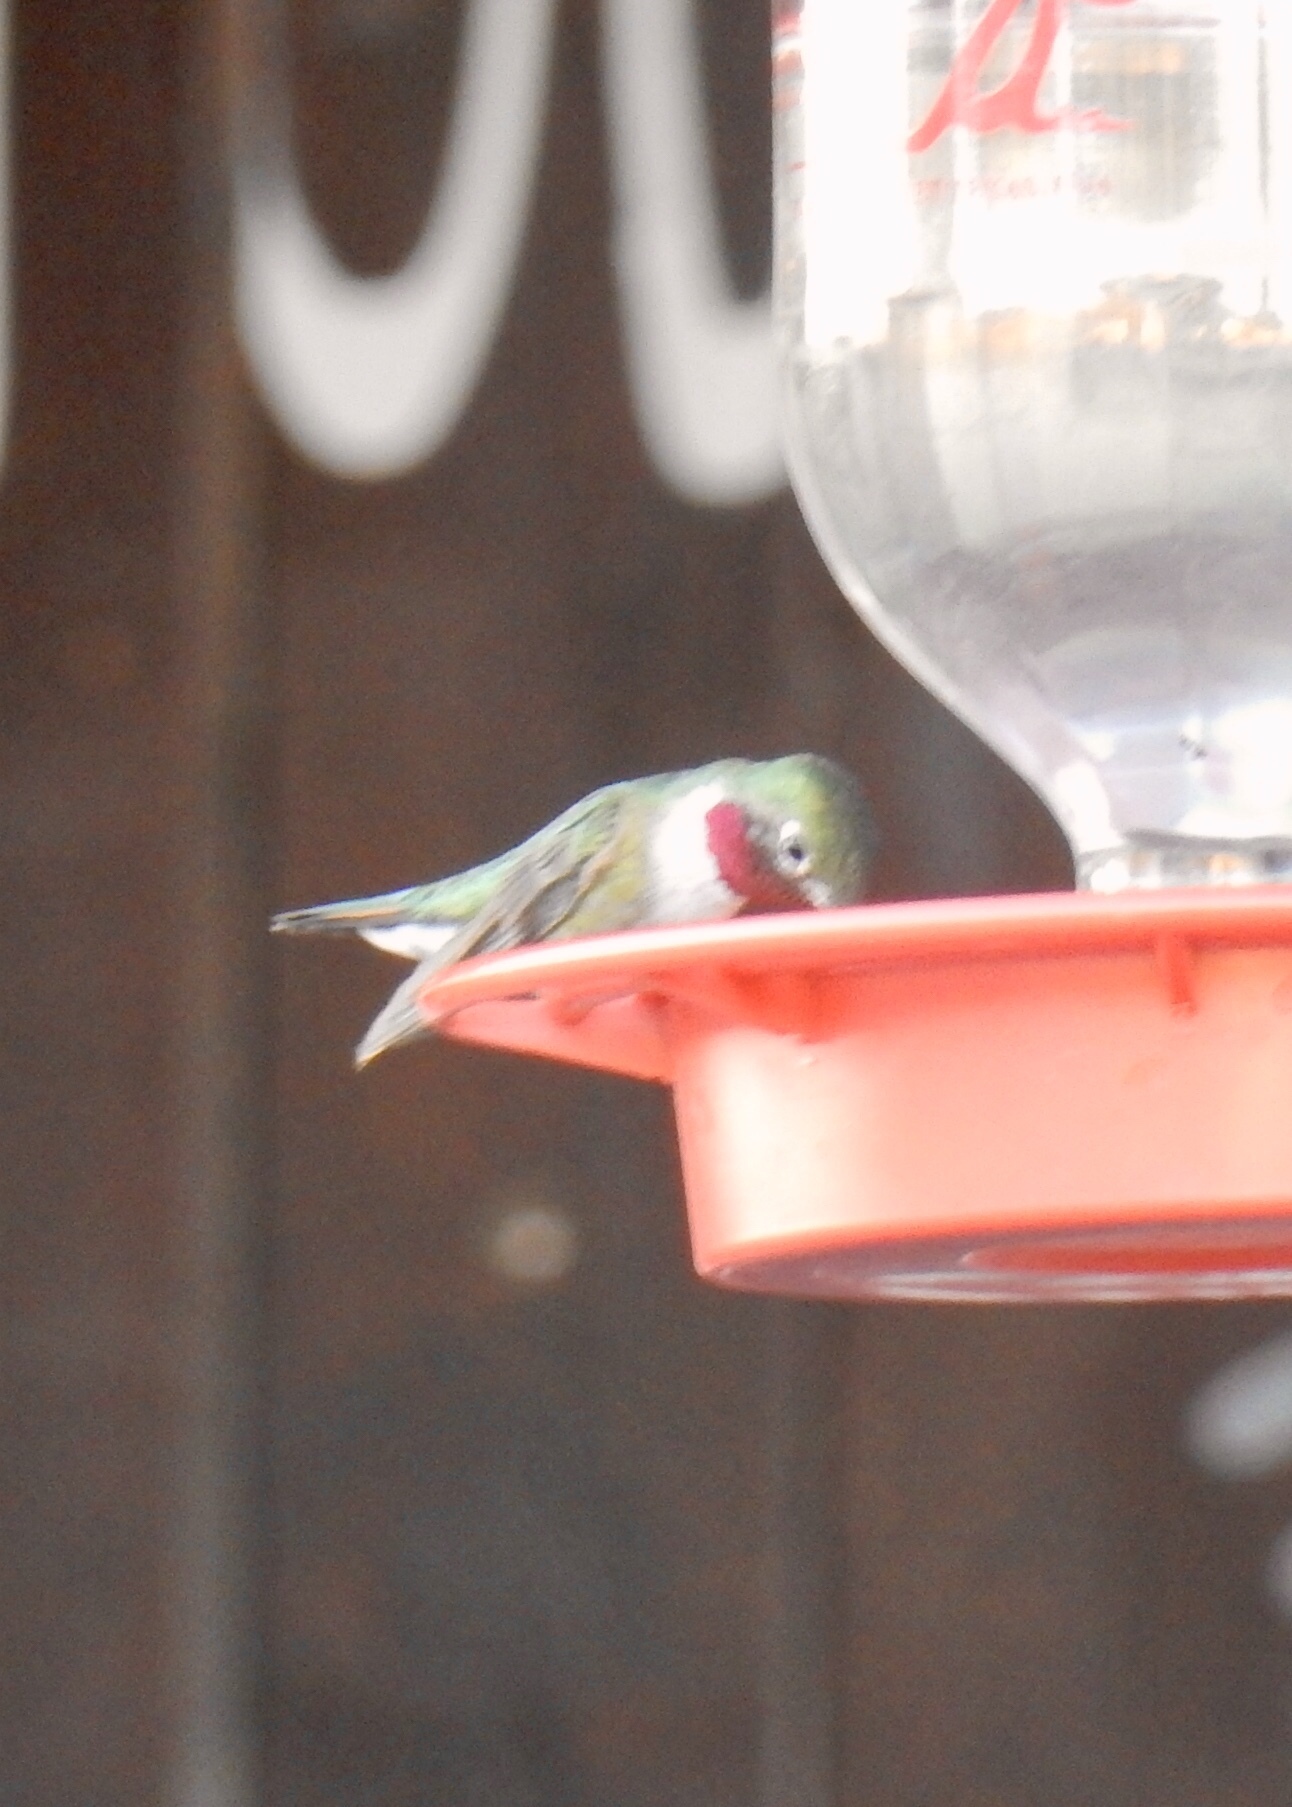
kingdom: Animalia
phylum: Chordata
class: Aves
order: Apodiformes
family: Trochilidae
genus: Selasphorus
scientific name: Selasphorus platycercus
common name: Broad-tailed hummingbird
